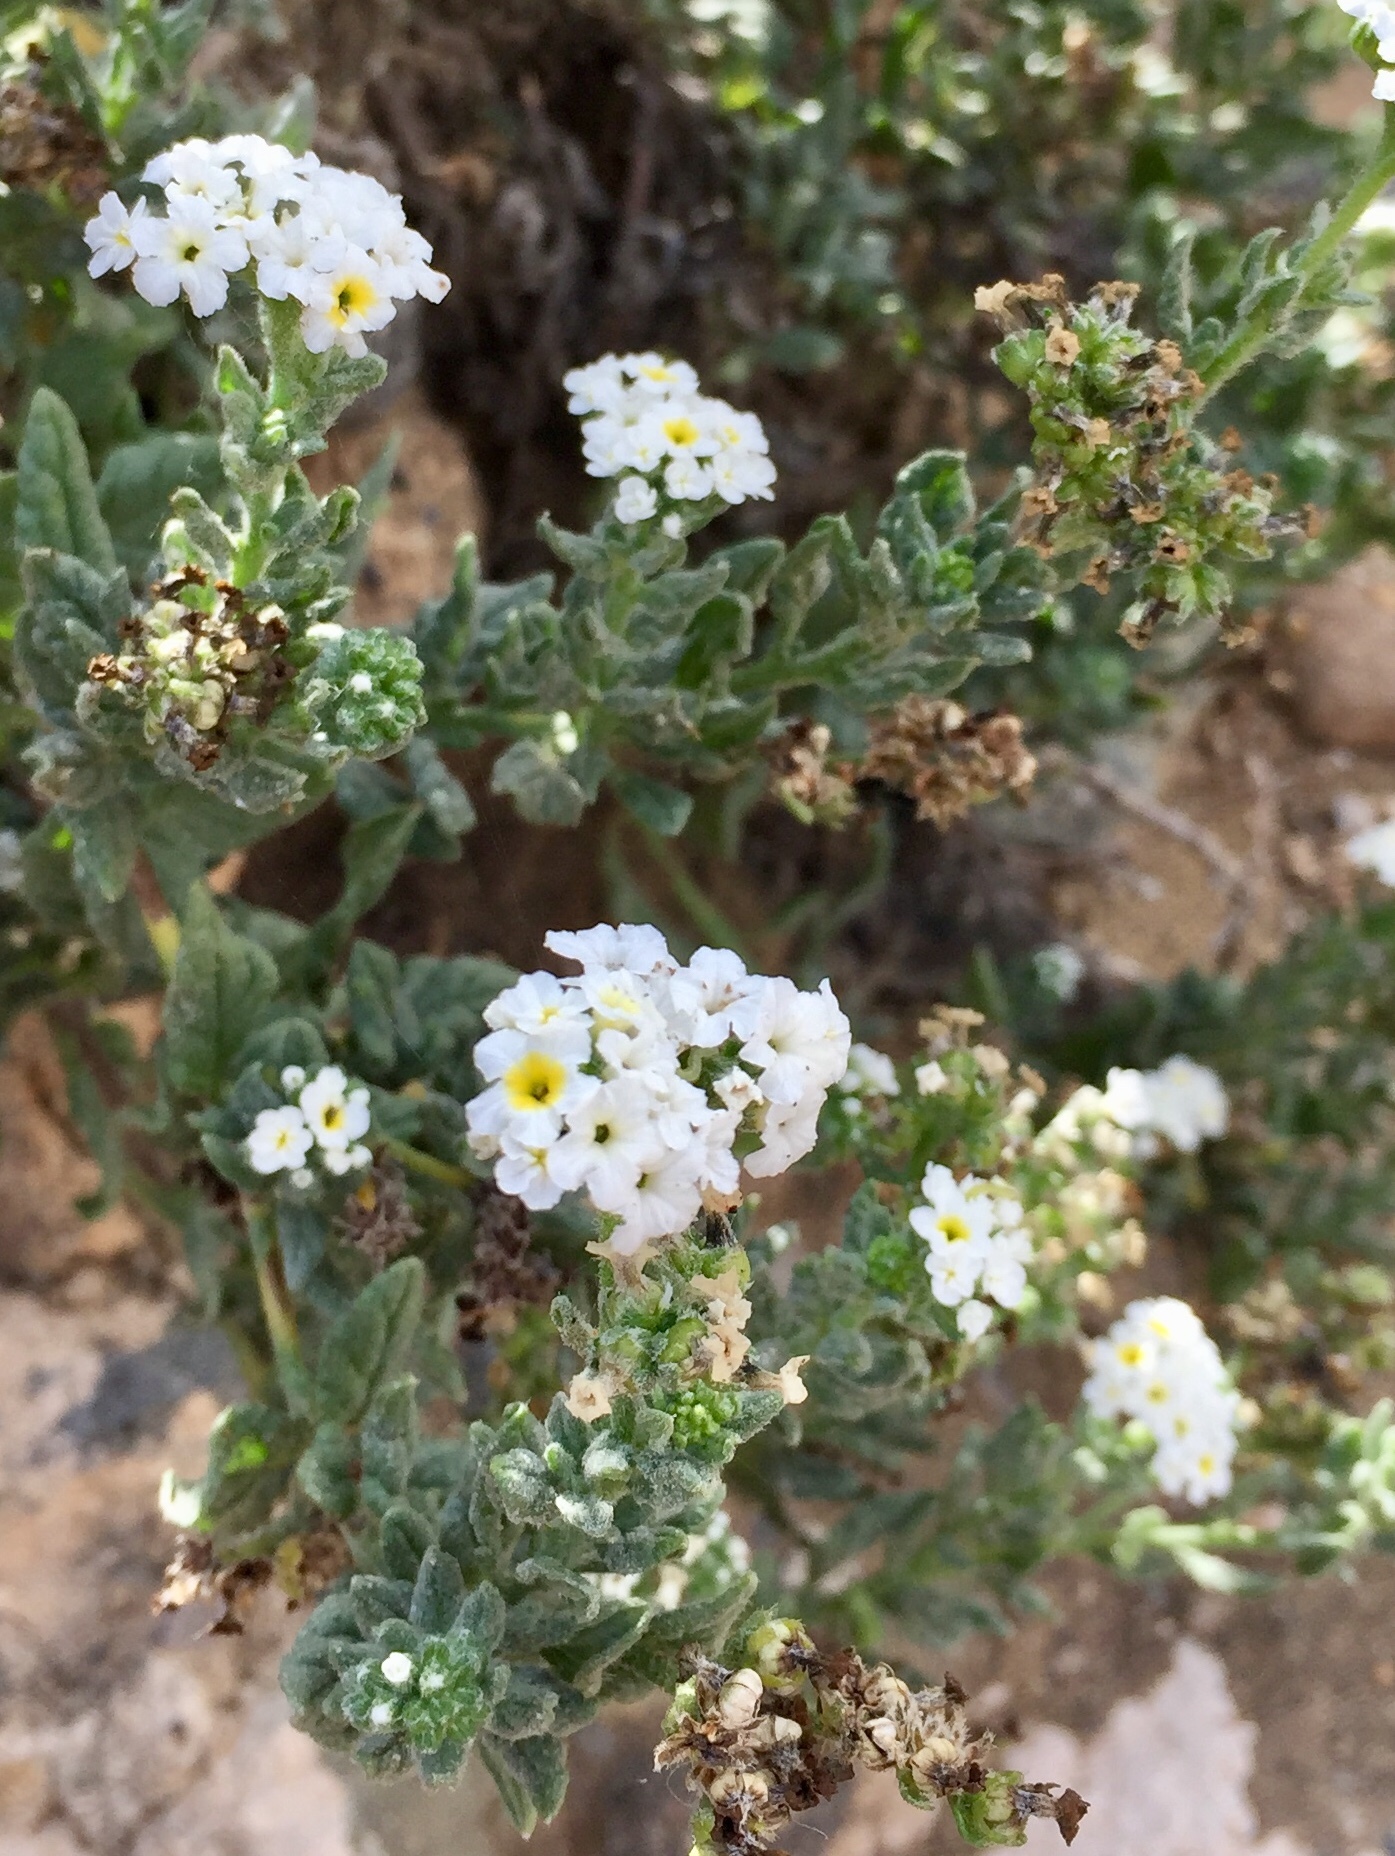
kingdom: Plantae
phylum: Tracheophyta
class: Magnoliopsida
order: Boraginales
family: Heliotropiaceae
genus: Heliotropium
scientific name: Heliotropium ramosissimum
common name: Wavy heliotrope
